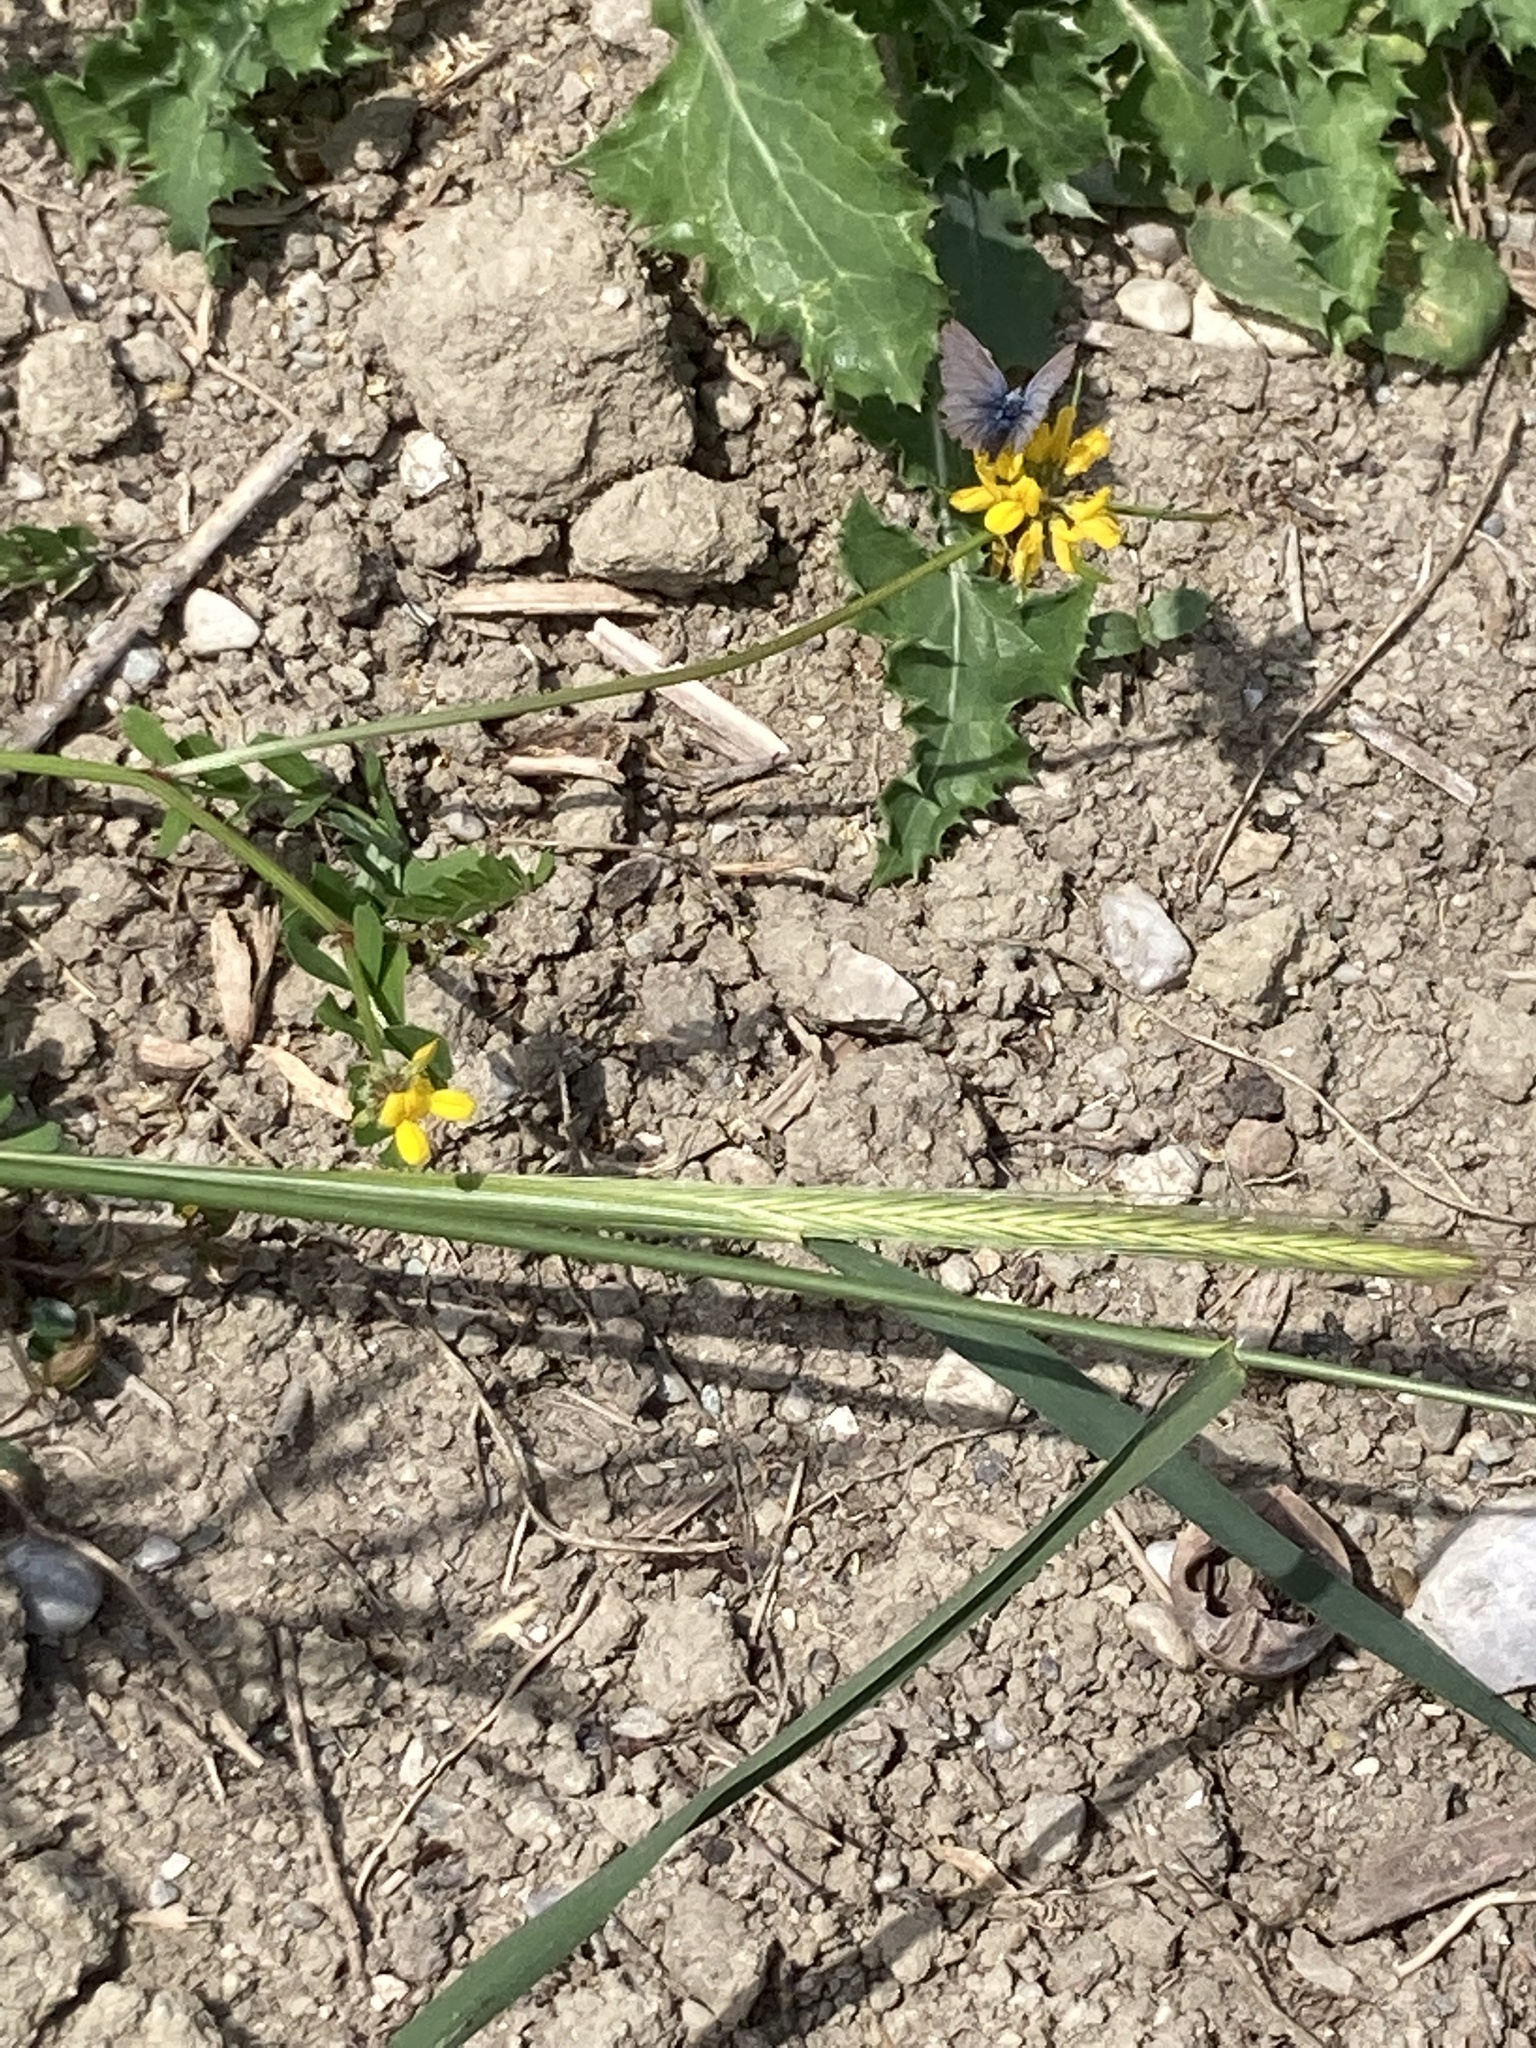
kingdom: Animalia
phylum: Arthropoda
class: Insecta
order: Lepidoptera
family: Lycaenidae
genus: Polyommatus
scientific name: Polyommatus icarus
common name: Common blue
